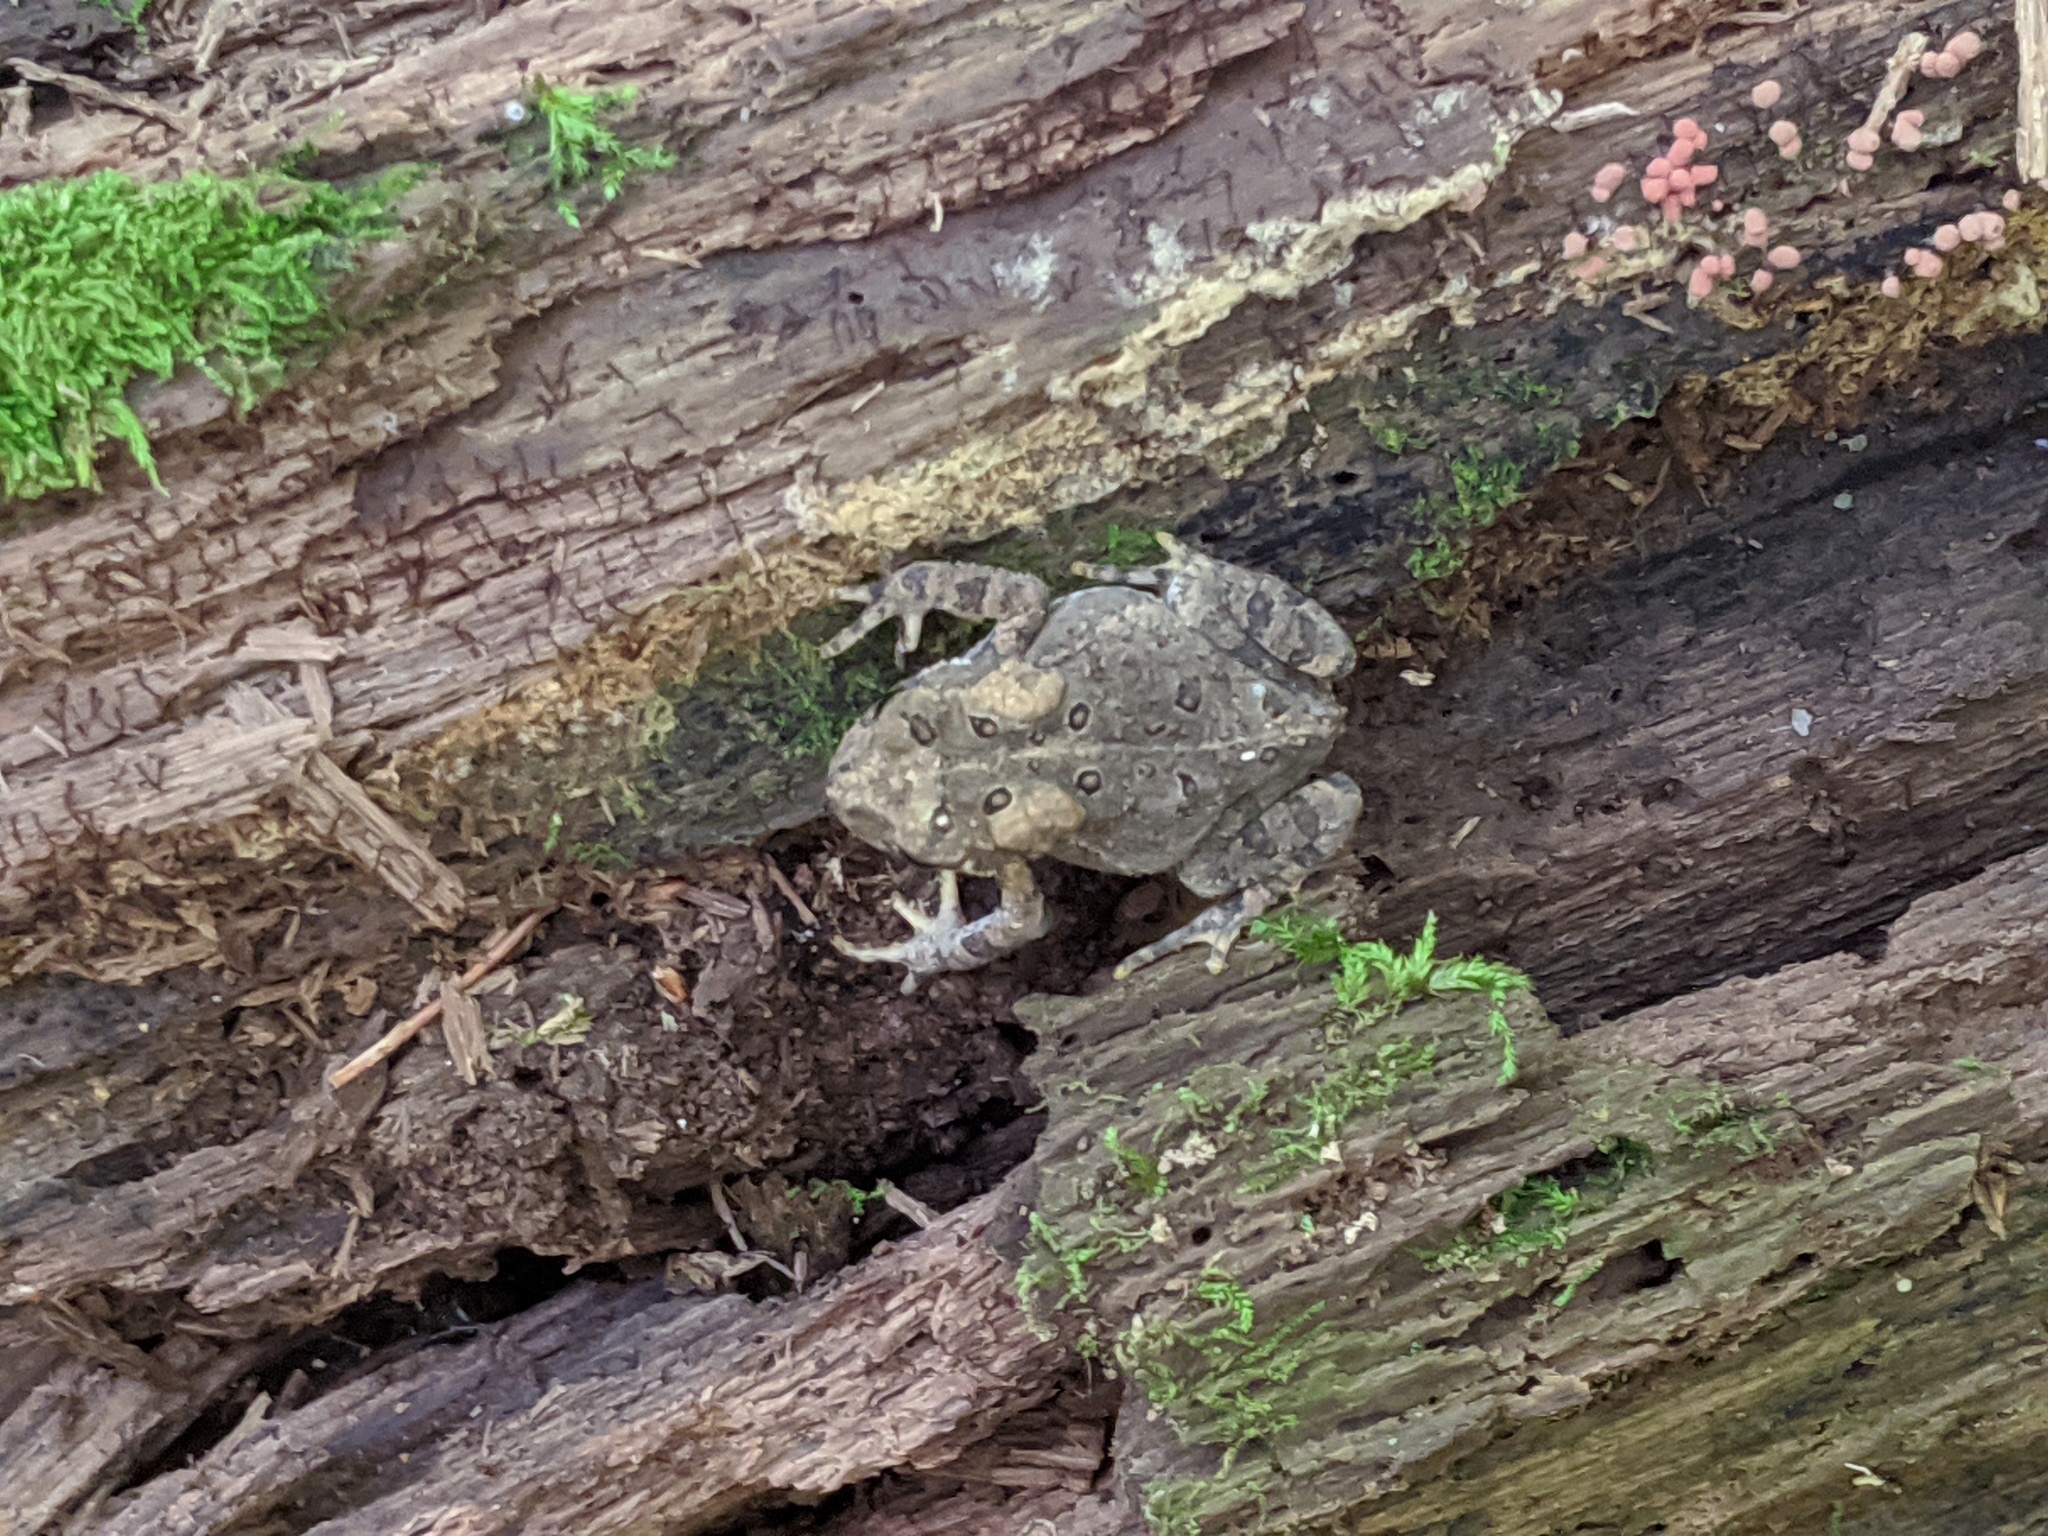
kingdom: Animalia
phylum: Chordata
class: Amphibia
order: Anura
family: Bufonidae
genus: Anaxyrus
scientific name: Anaxyrus americanus
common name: American toad
